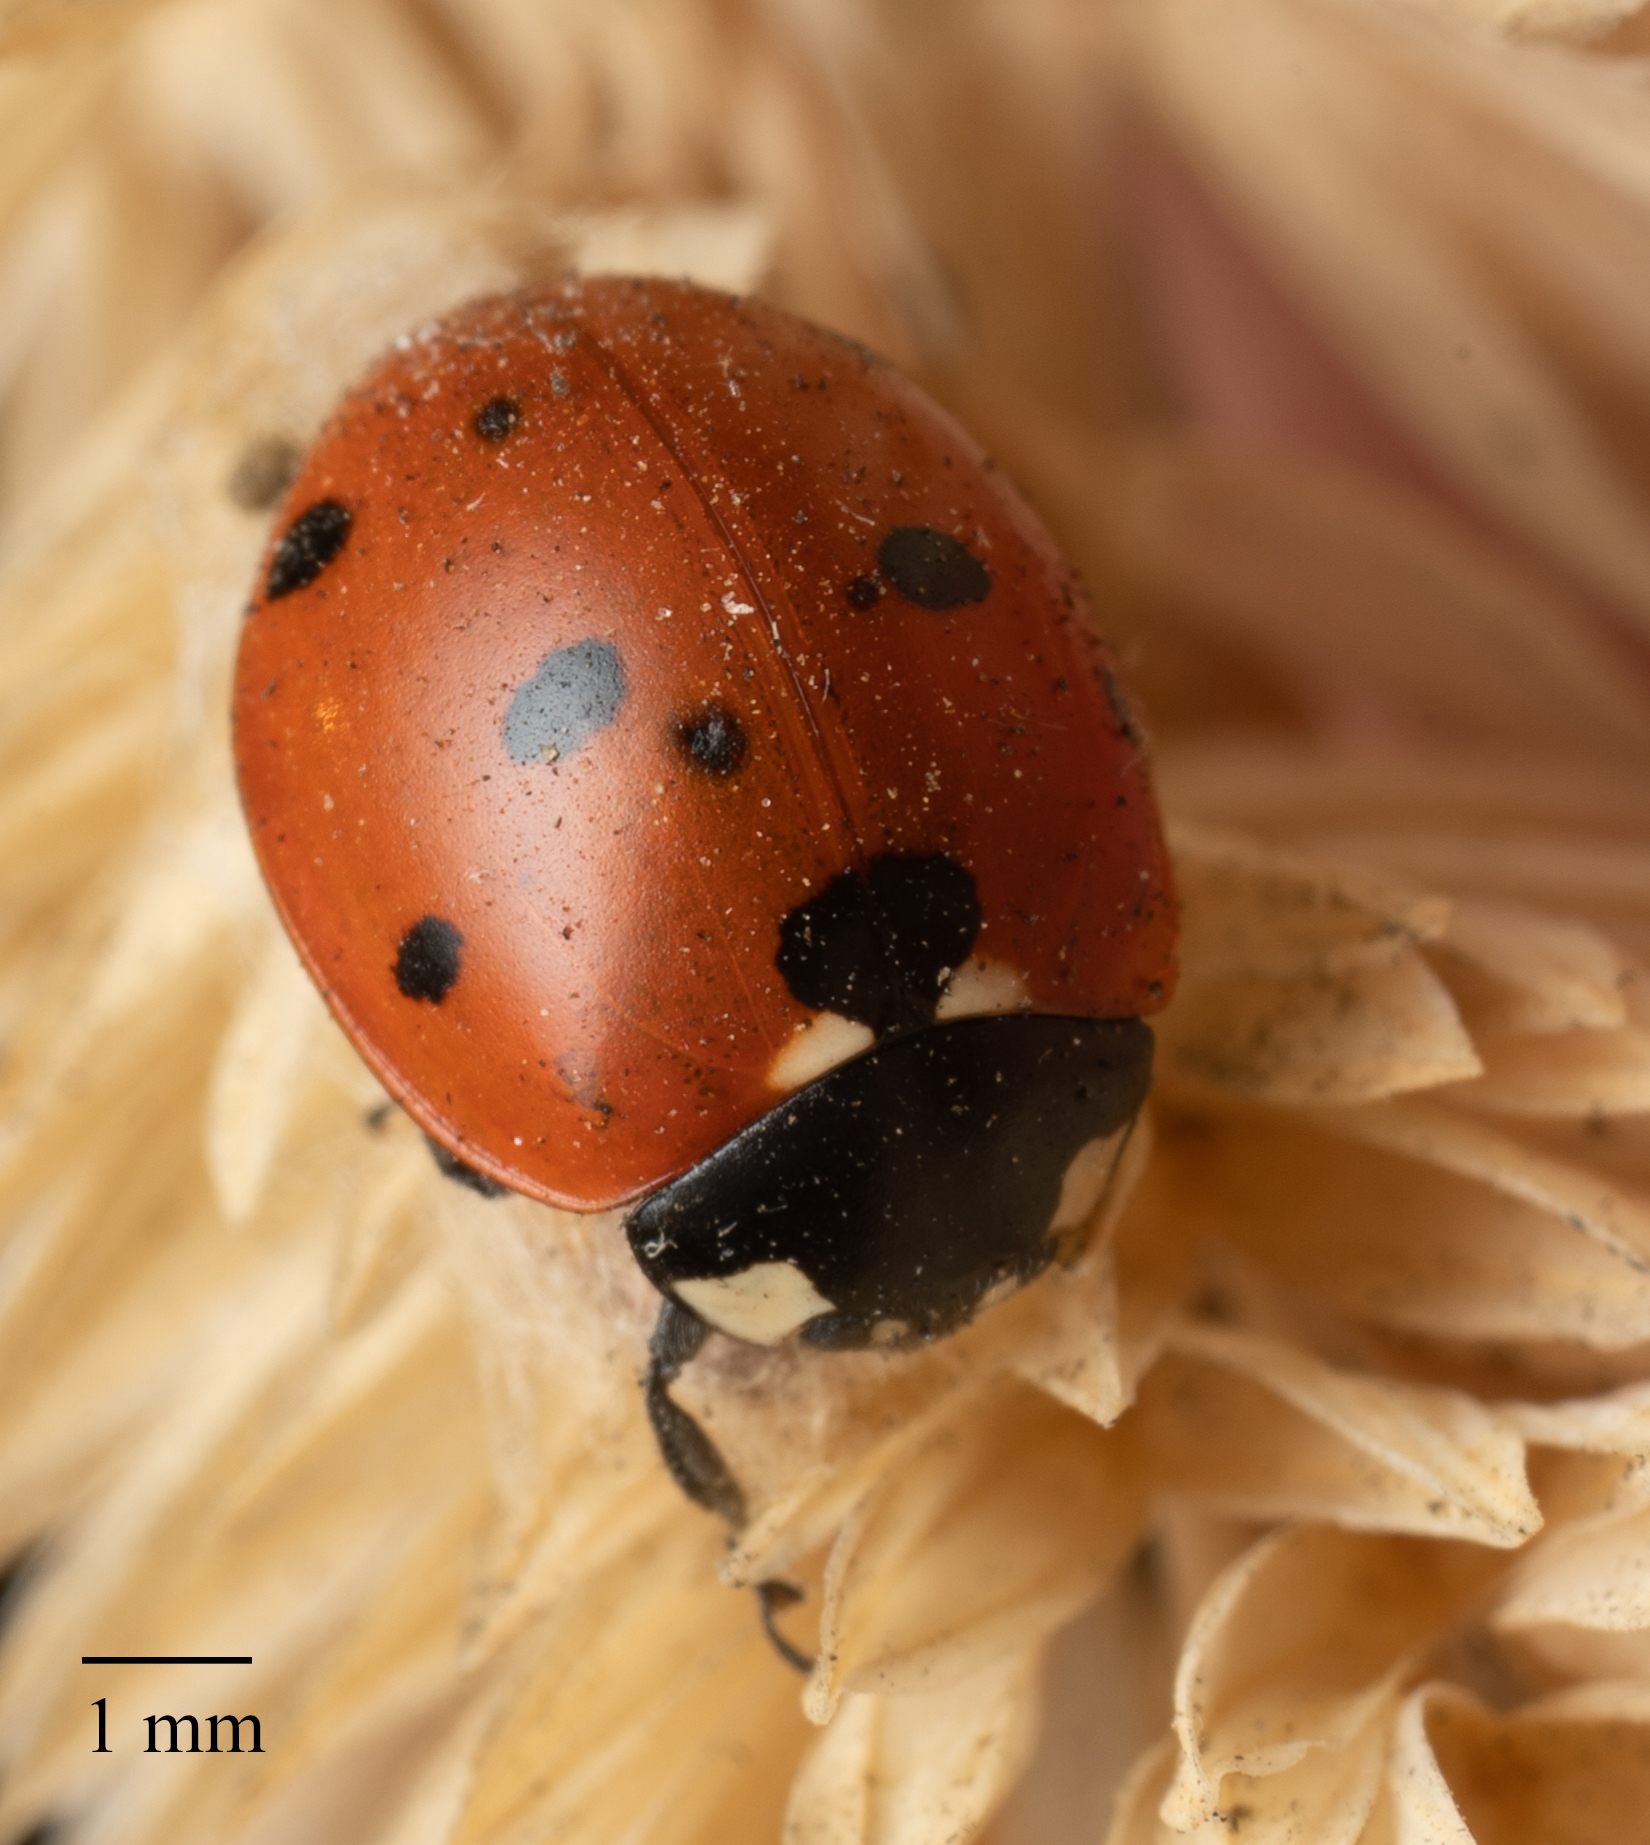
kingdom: Animalia
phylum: Arthropoda
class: Insecta
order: Coleoptera
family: Coccinellidae
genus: Coccinella
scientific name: Coccinella septempunctata
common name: Sevenspotted lady beetle
